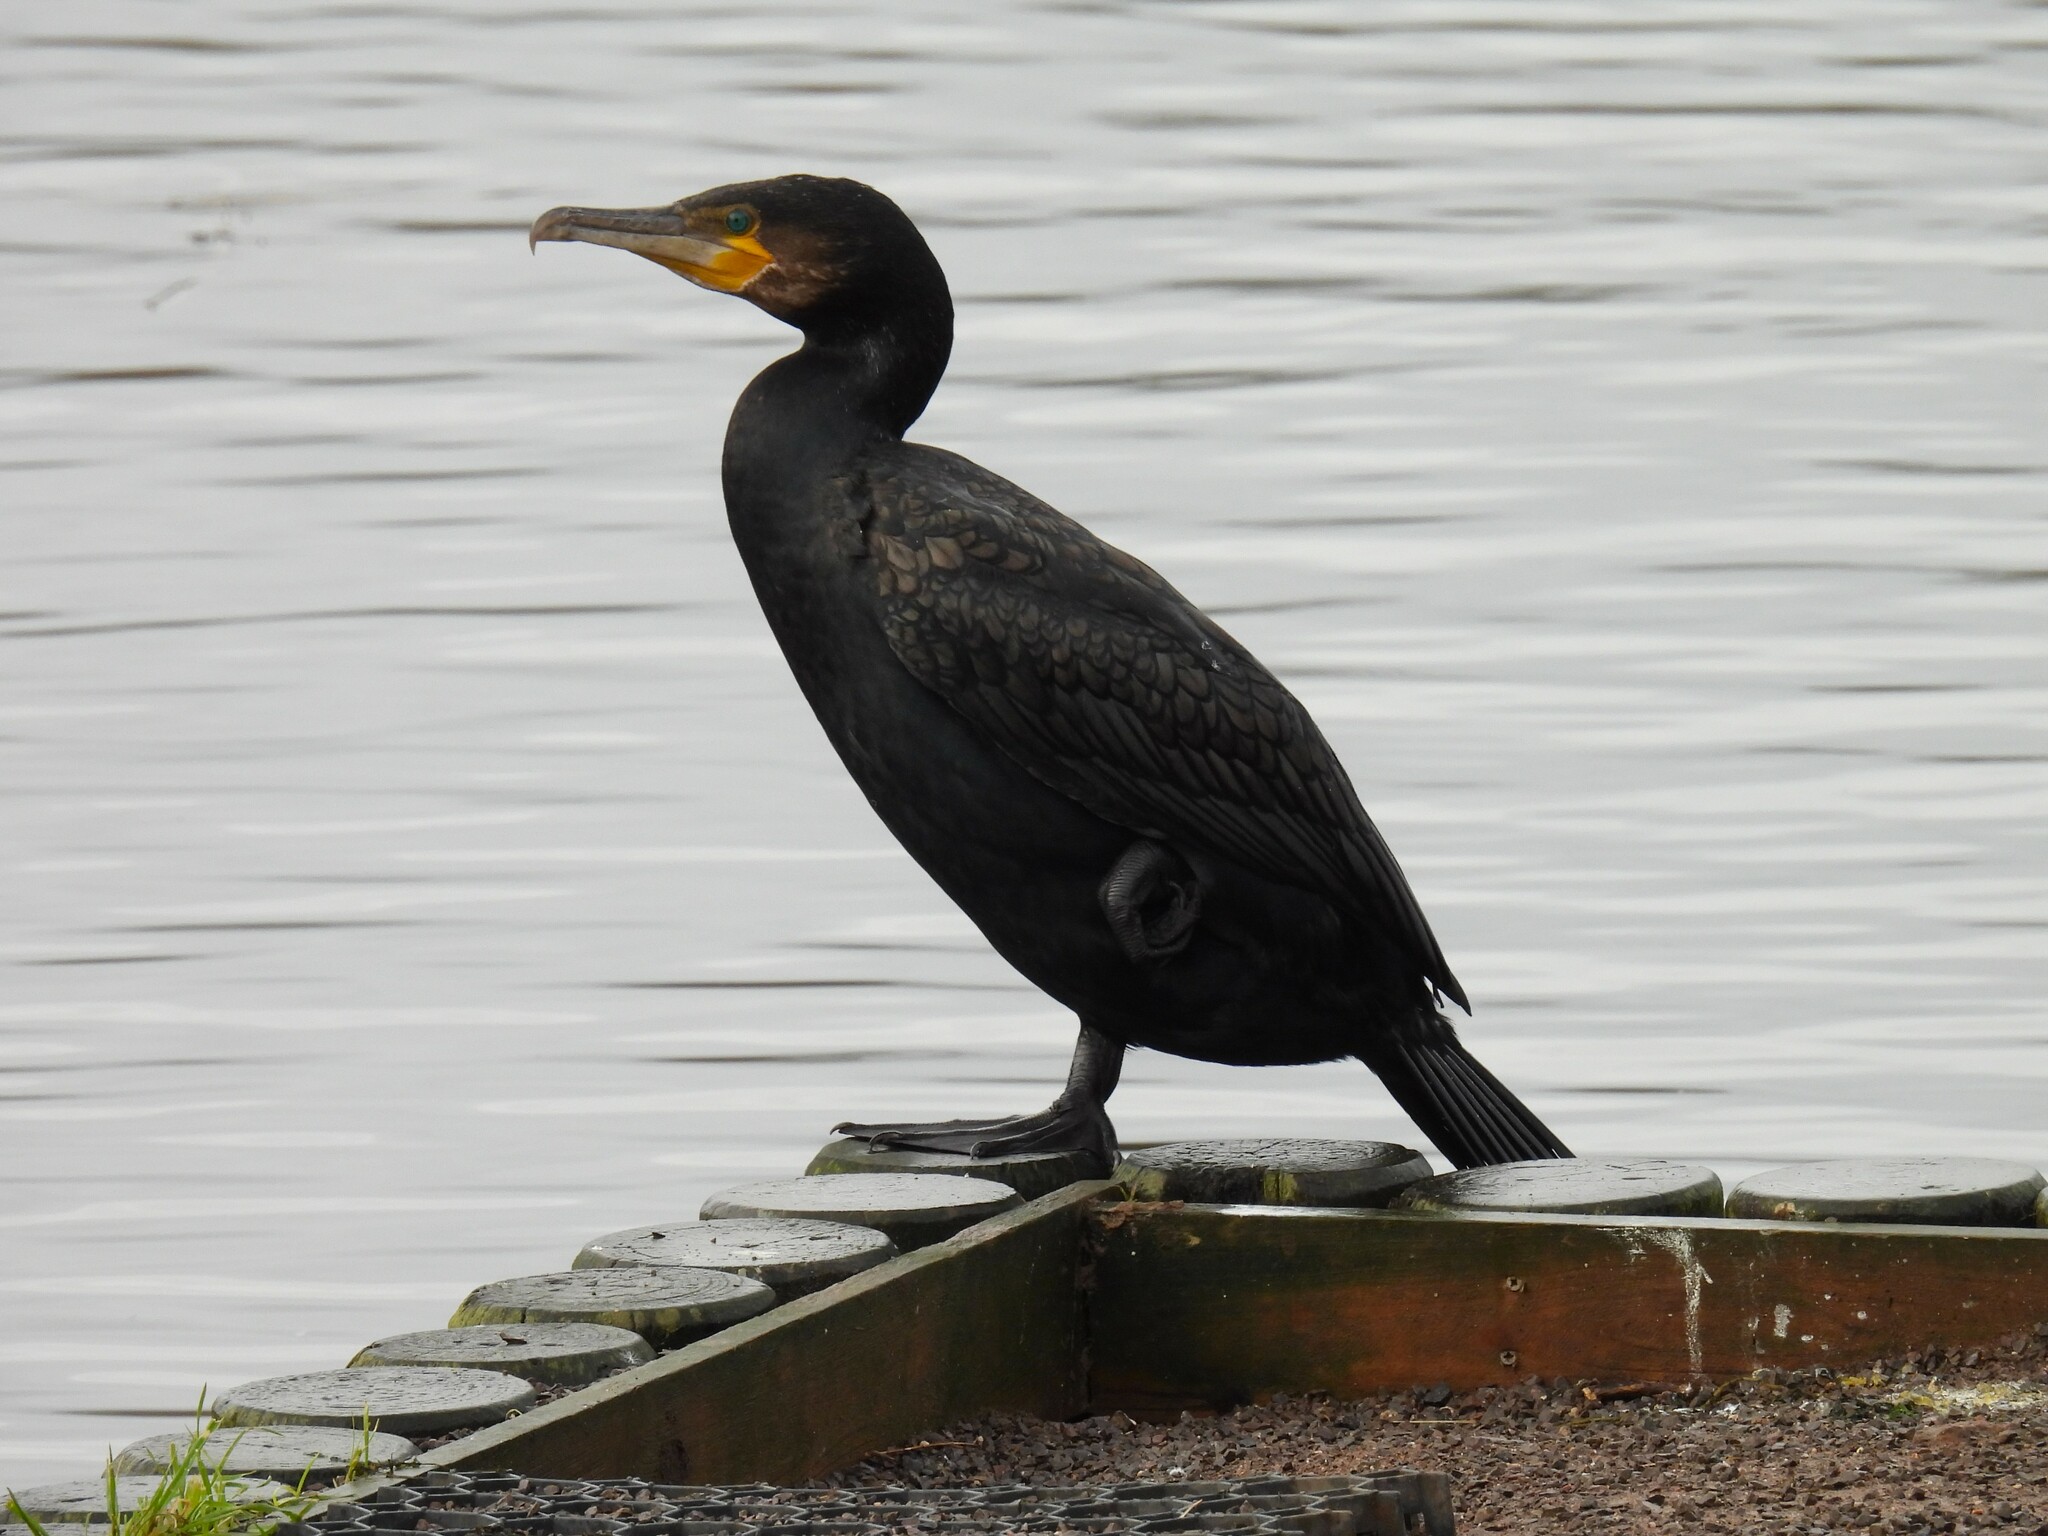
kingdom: Animalia
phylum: Chordata
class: Aves
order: Suliformes
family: Phalacrocoracidae
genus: Phalacrocorax
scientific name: Phalacrocorax carbo
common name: Great cormorant
